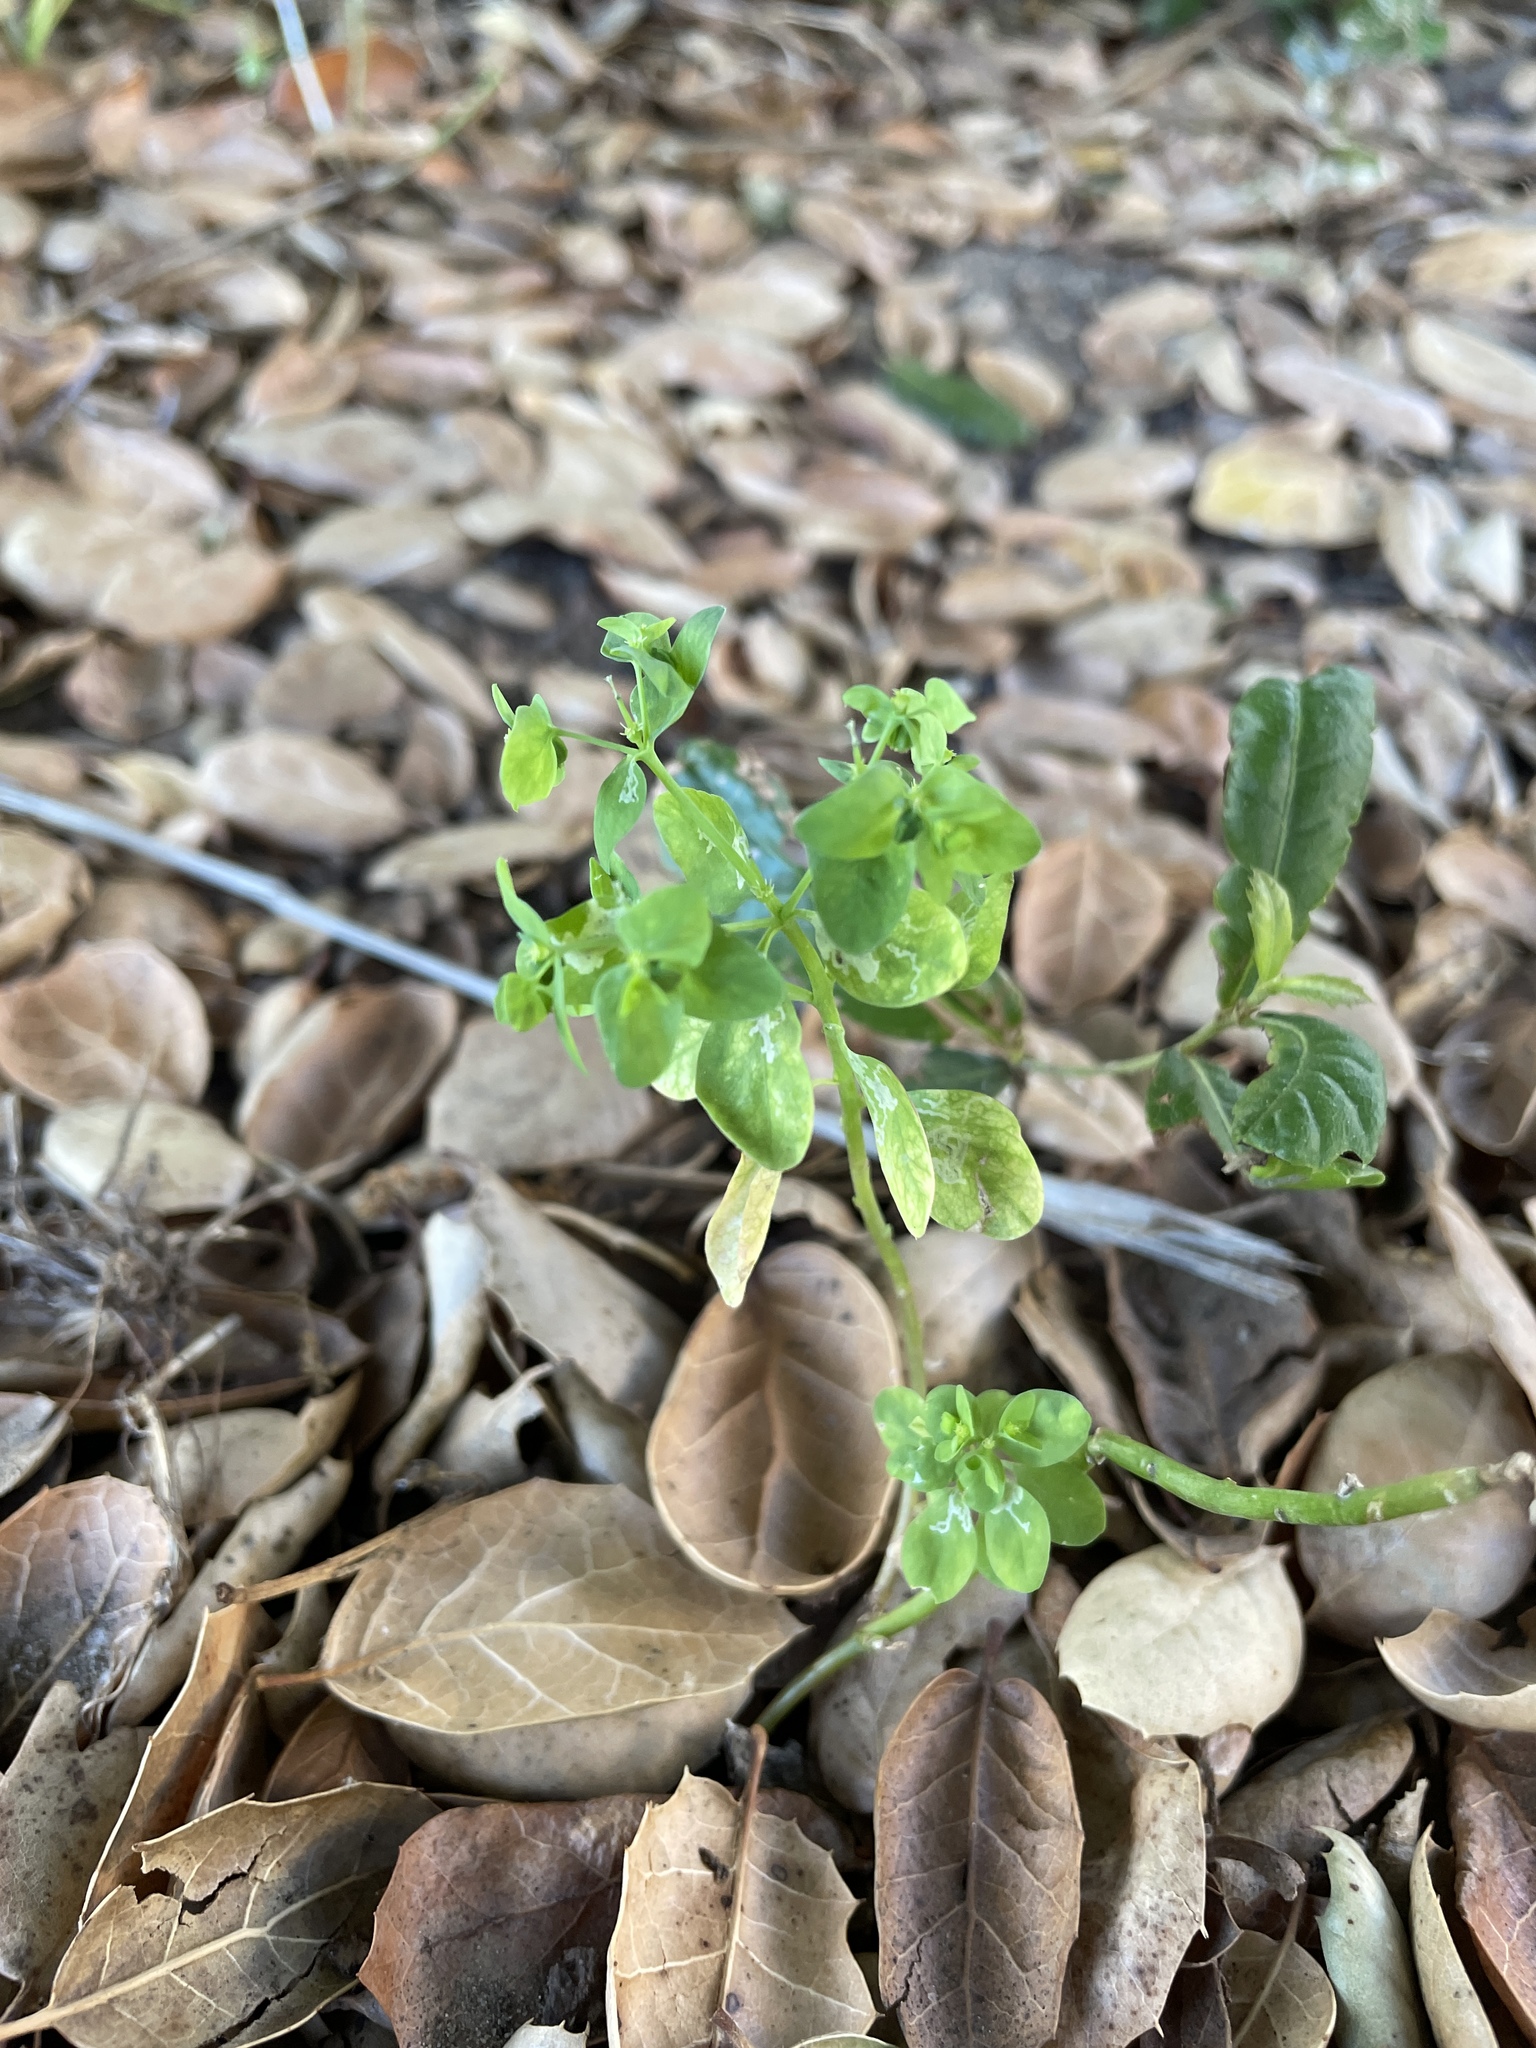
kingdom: Plantae
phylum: Tracheophyta
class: Magnoliopsida
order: Malpighiales
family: Euphorbiaceae
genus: Euphorbia
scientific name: Euphorbia peplus
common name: Petty spurge
